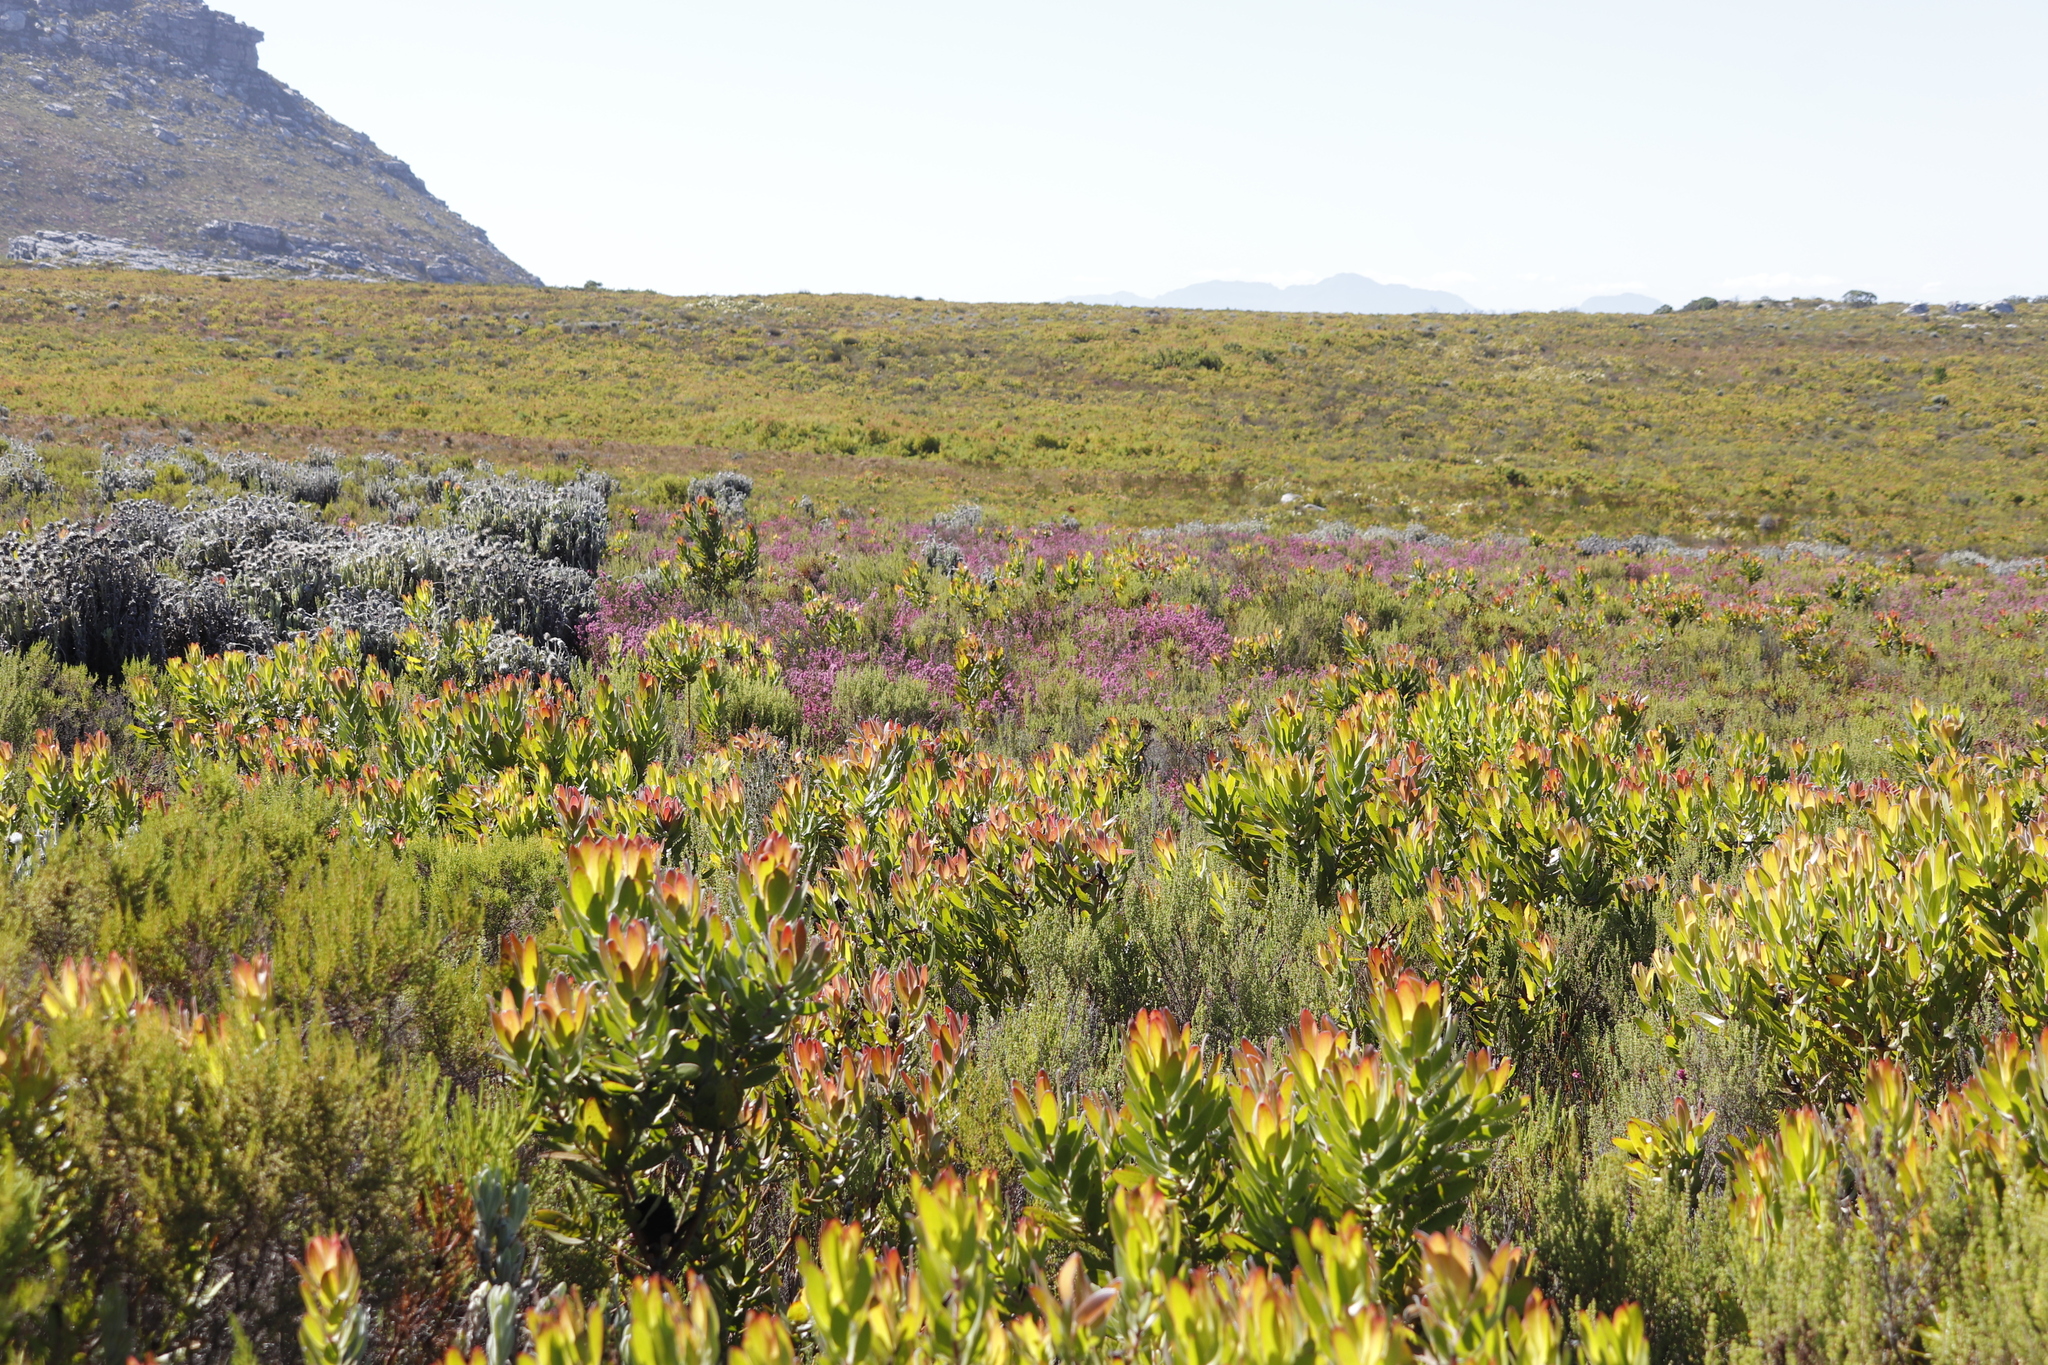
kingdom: Plantae
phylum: Tracheophyta
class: Magnoliopsida
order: Proteales
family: Proteaceae
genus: Leucadendron
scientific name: Leucadendron laureolum
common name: Golden sunshinebush
